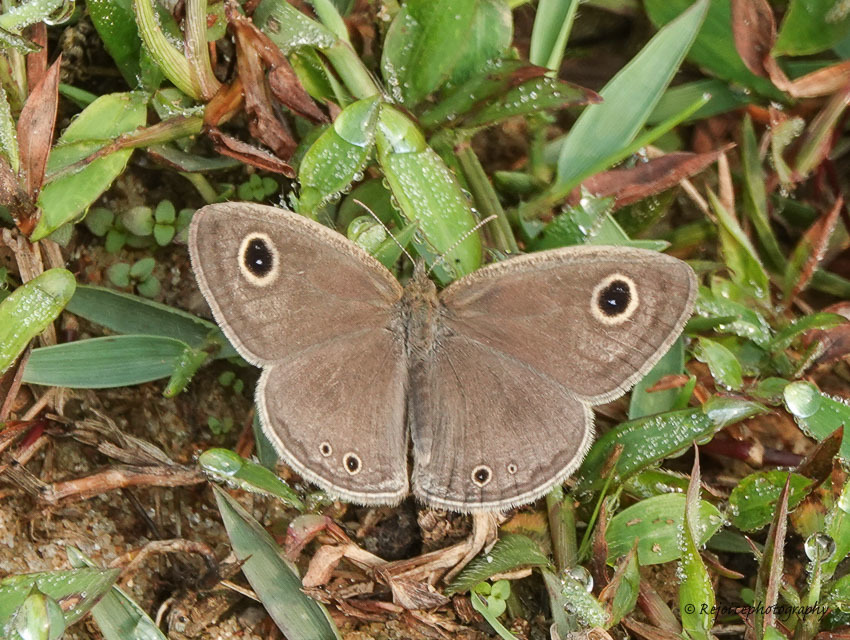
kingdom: Animalia
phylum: Arthropoda
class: Insecta
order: Lepidoptera
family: Nymphalidae
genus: Ypthima
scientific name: Ypthima huebneri
